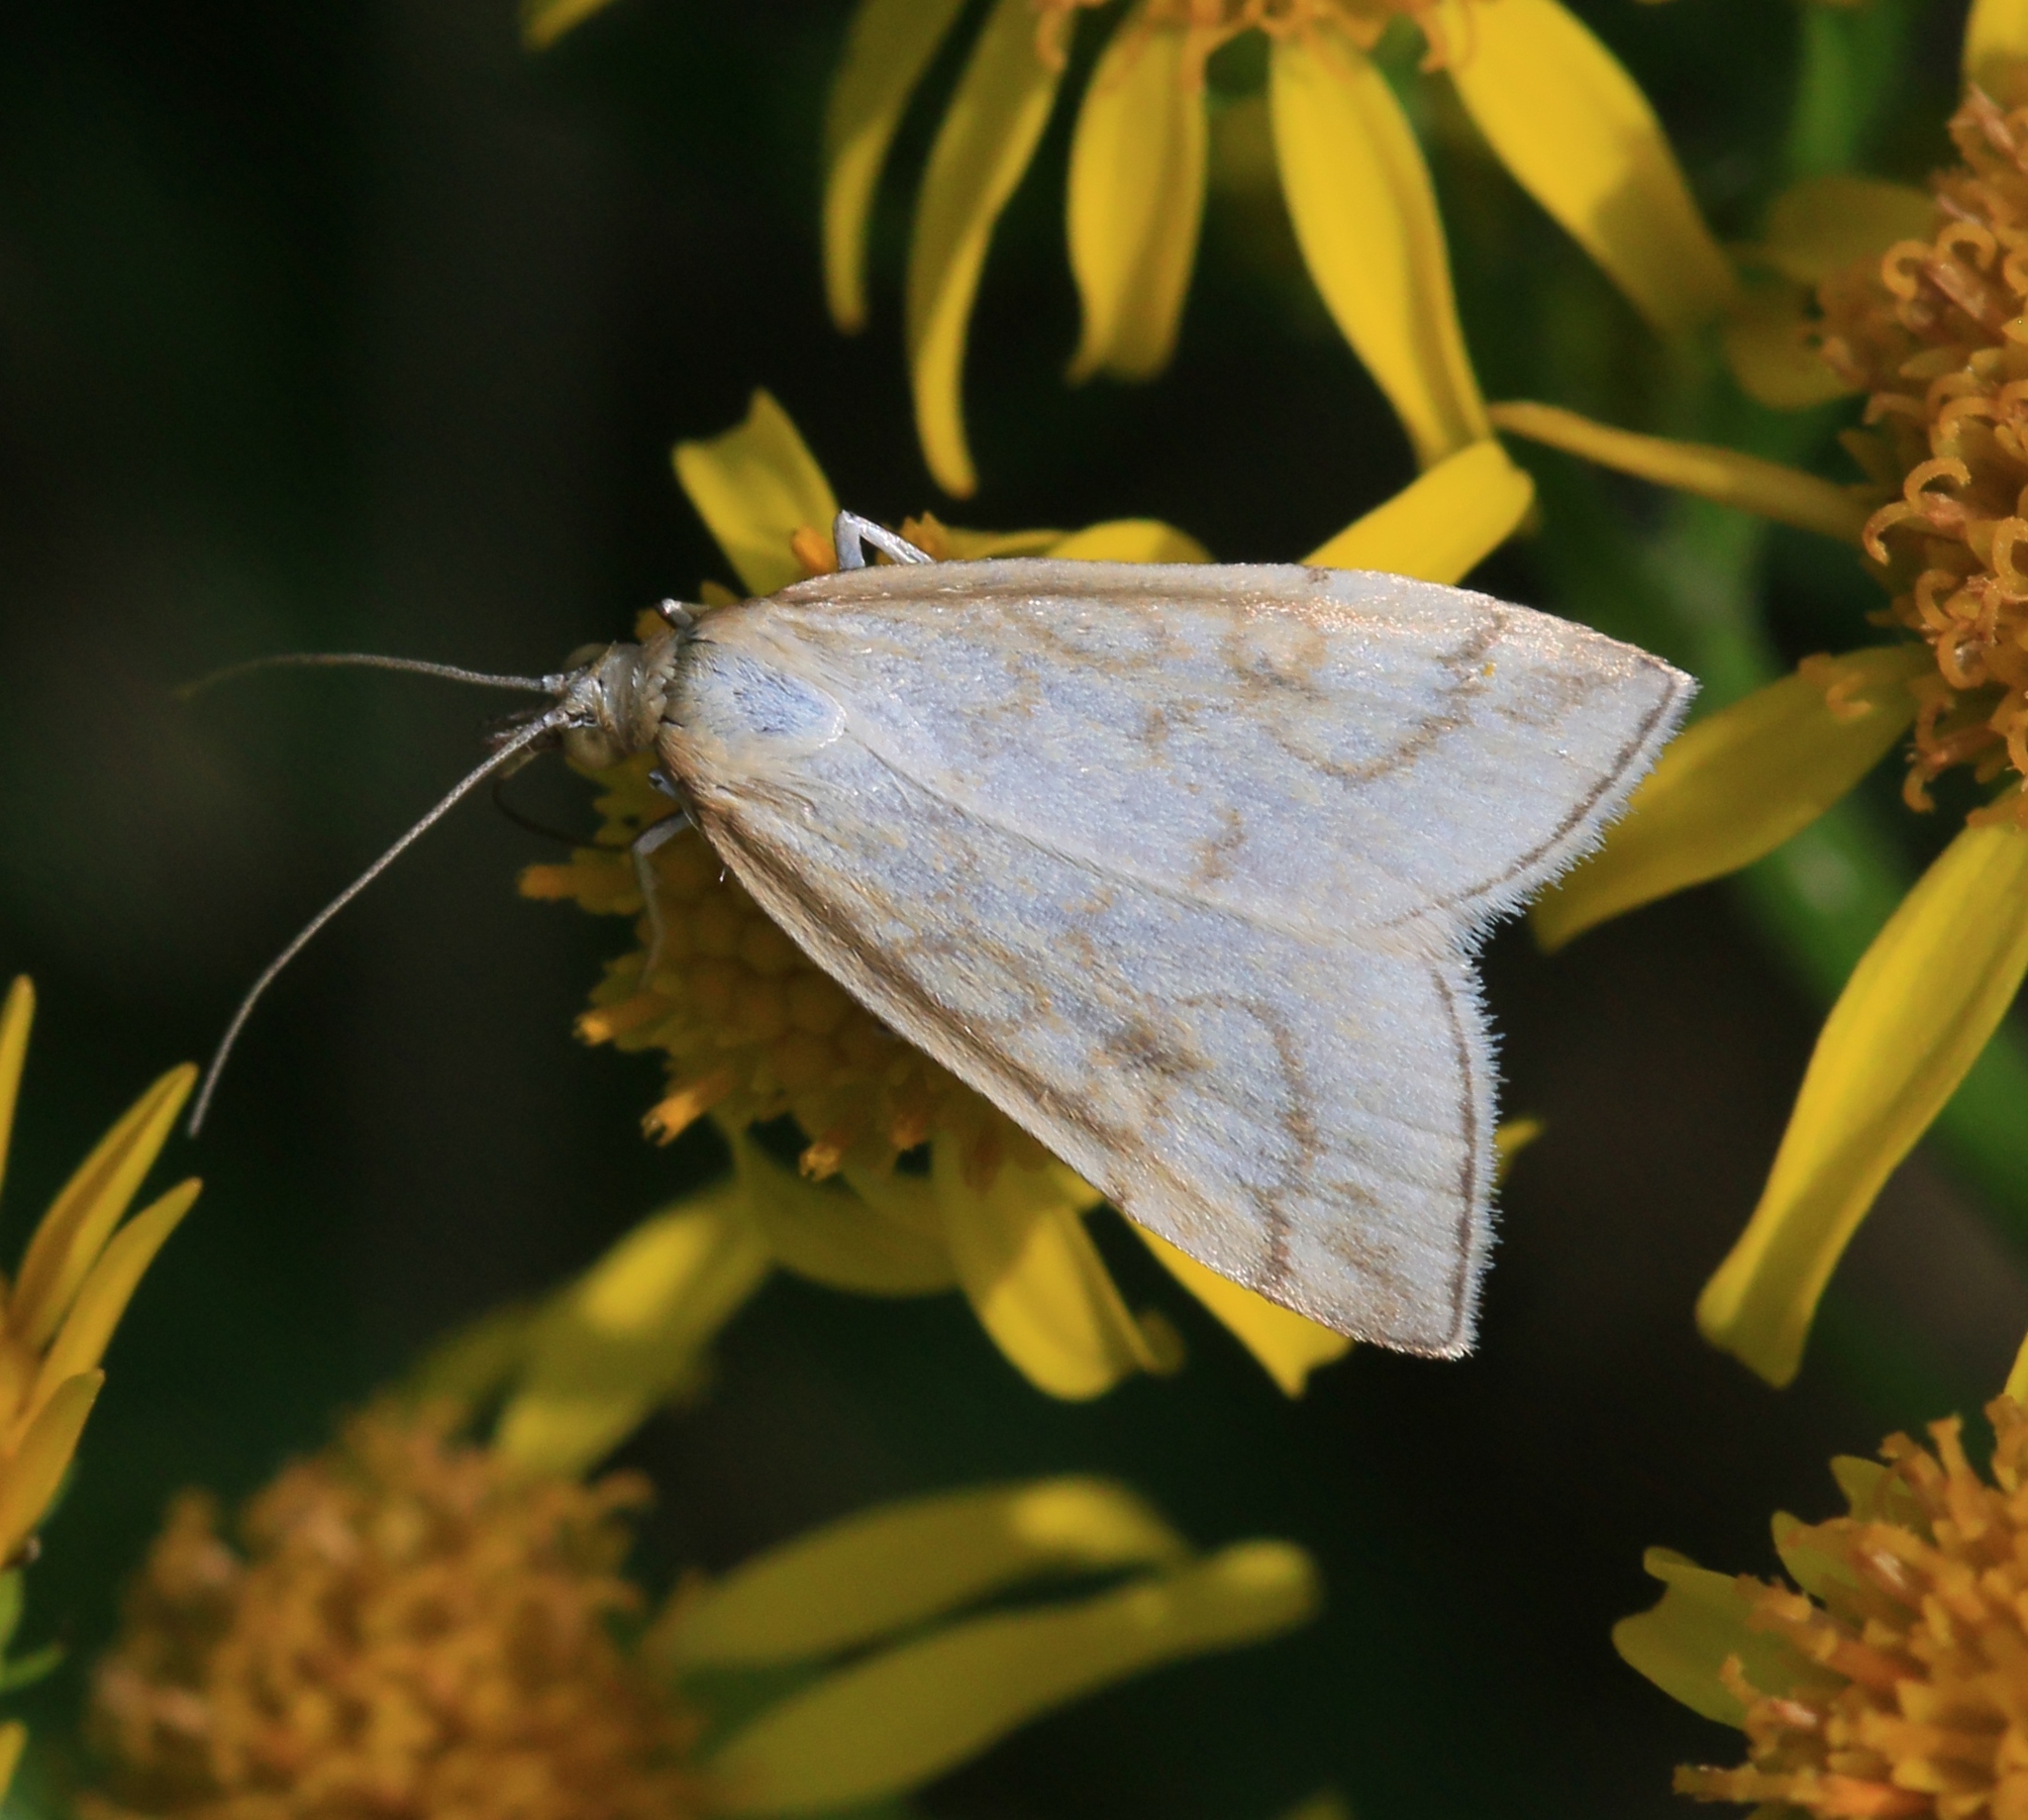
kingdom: Animalia
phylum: Arthropoda
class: Insecta
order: Lepidoptera
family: Crambidae
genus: Udea
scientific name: Udea lutealis
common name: Pale straw pearl
